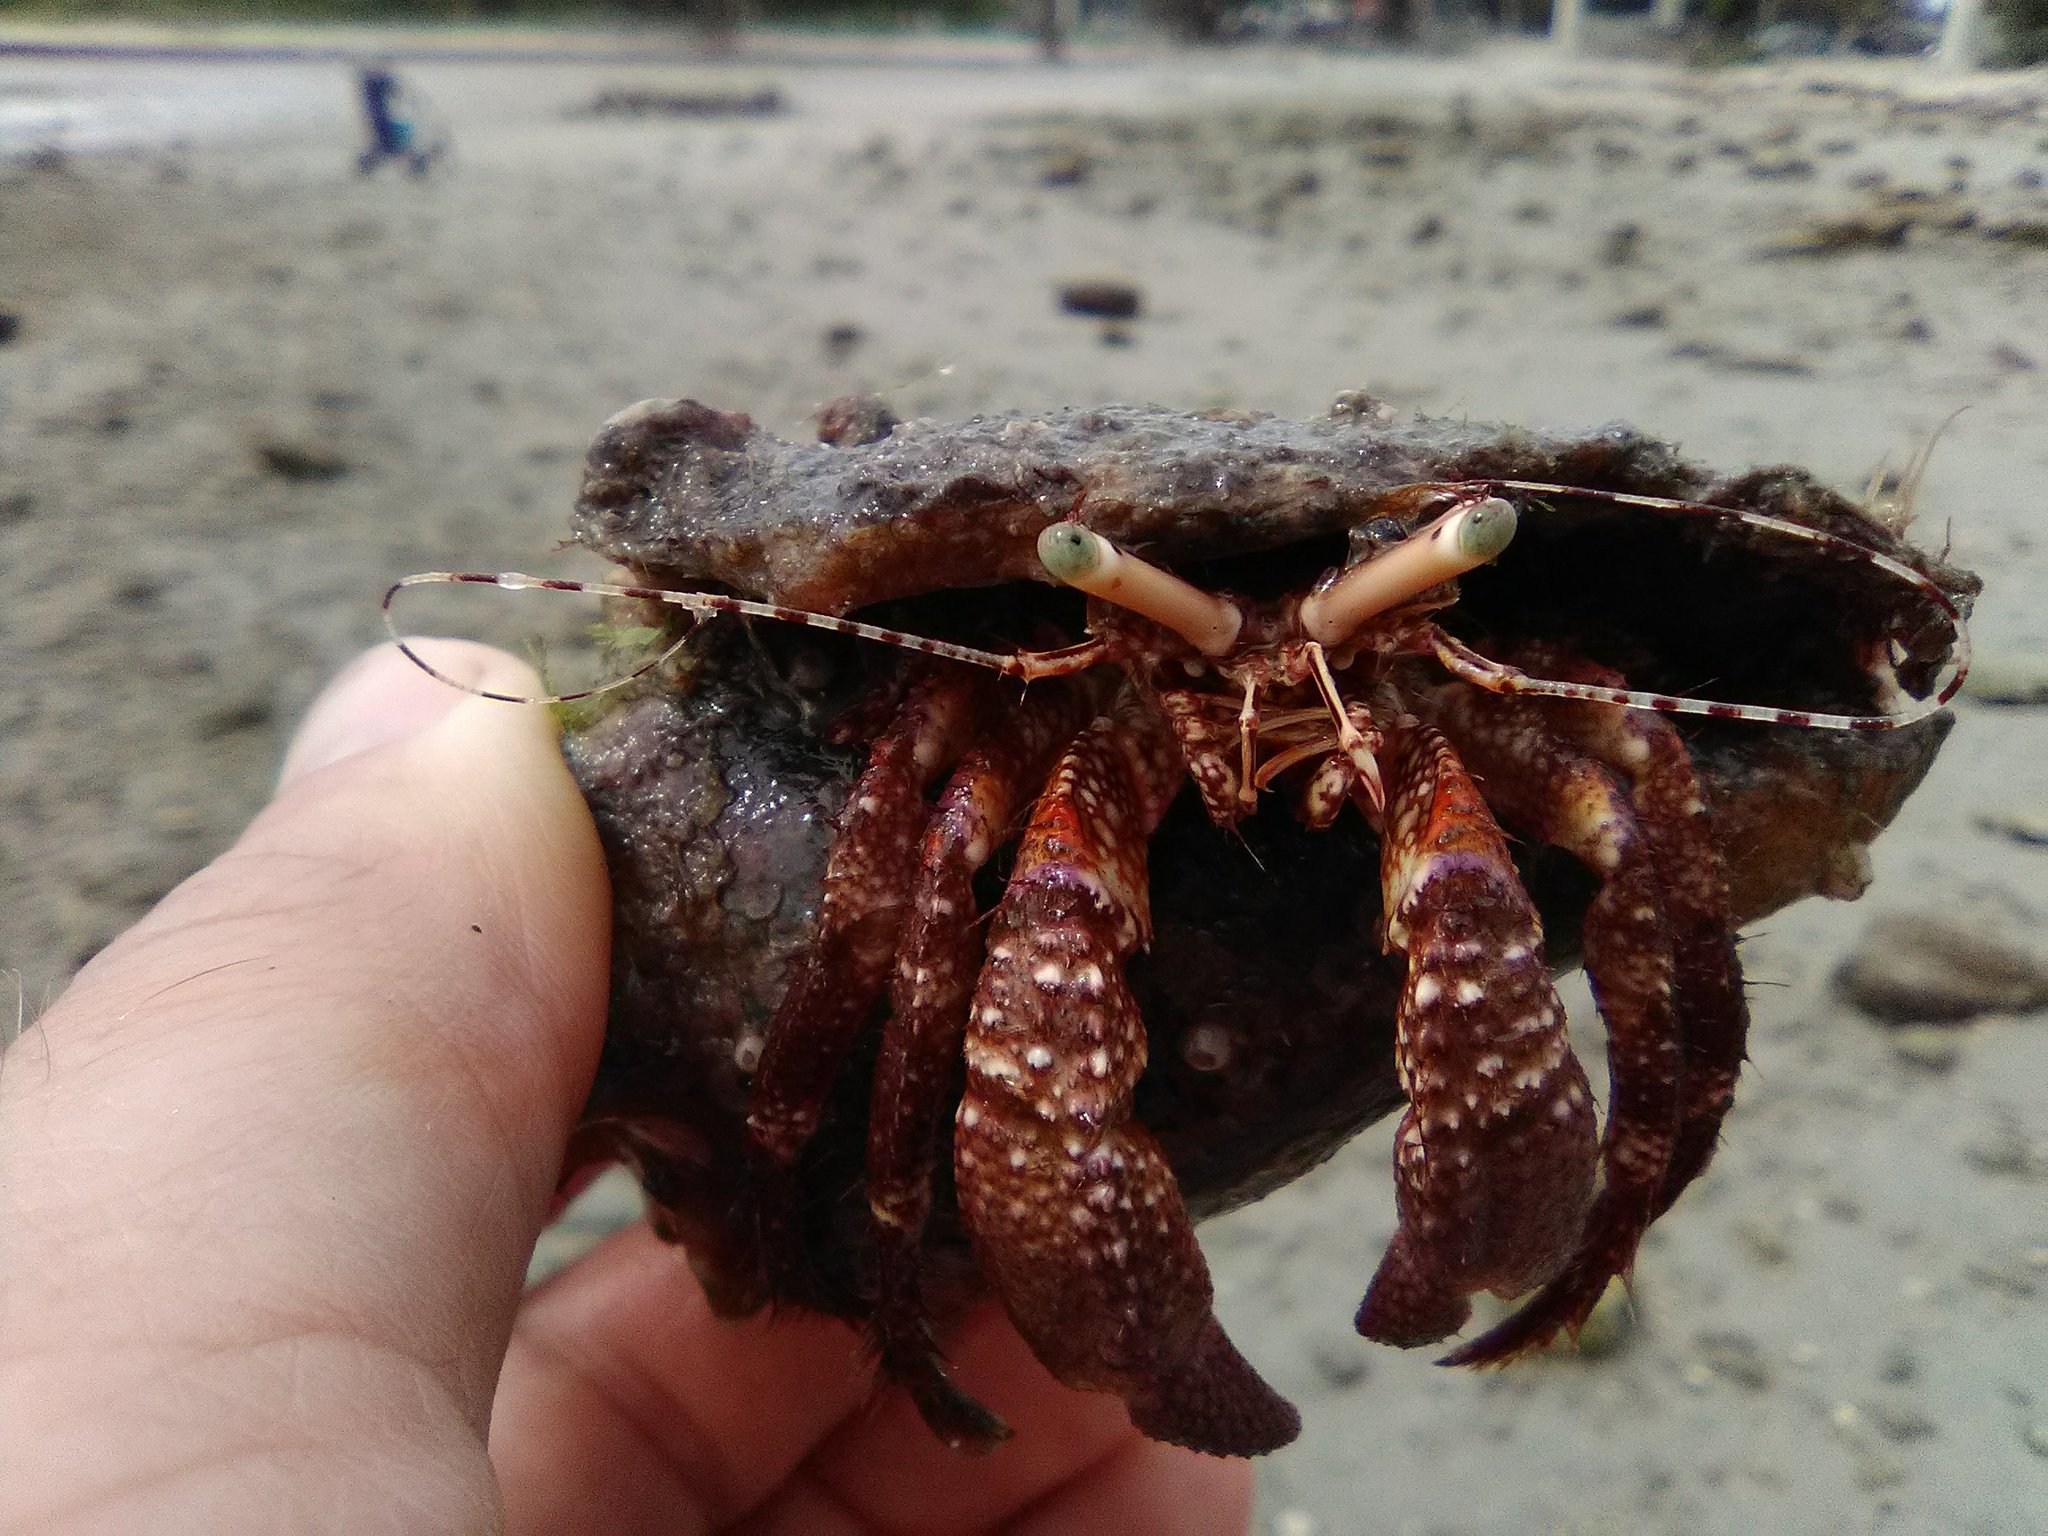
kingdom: Animalia
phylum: Arthropoda
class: Malacostraca
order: Decapoda
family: Diogenidae
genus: Petrochirus
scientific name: Petrochirus diogenes
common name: Giant hermit crab
